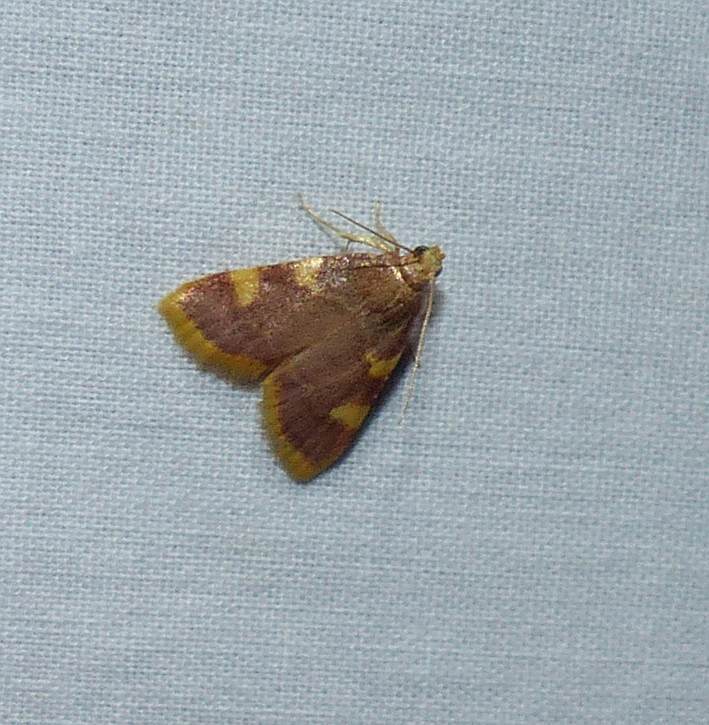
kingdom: Animalia
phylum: Arthropoda
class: Insecta
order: Lepidoptera
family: Pyralidae
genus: Hypsopygia
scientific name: Hypsopygia costalis
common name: Gold triangle
